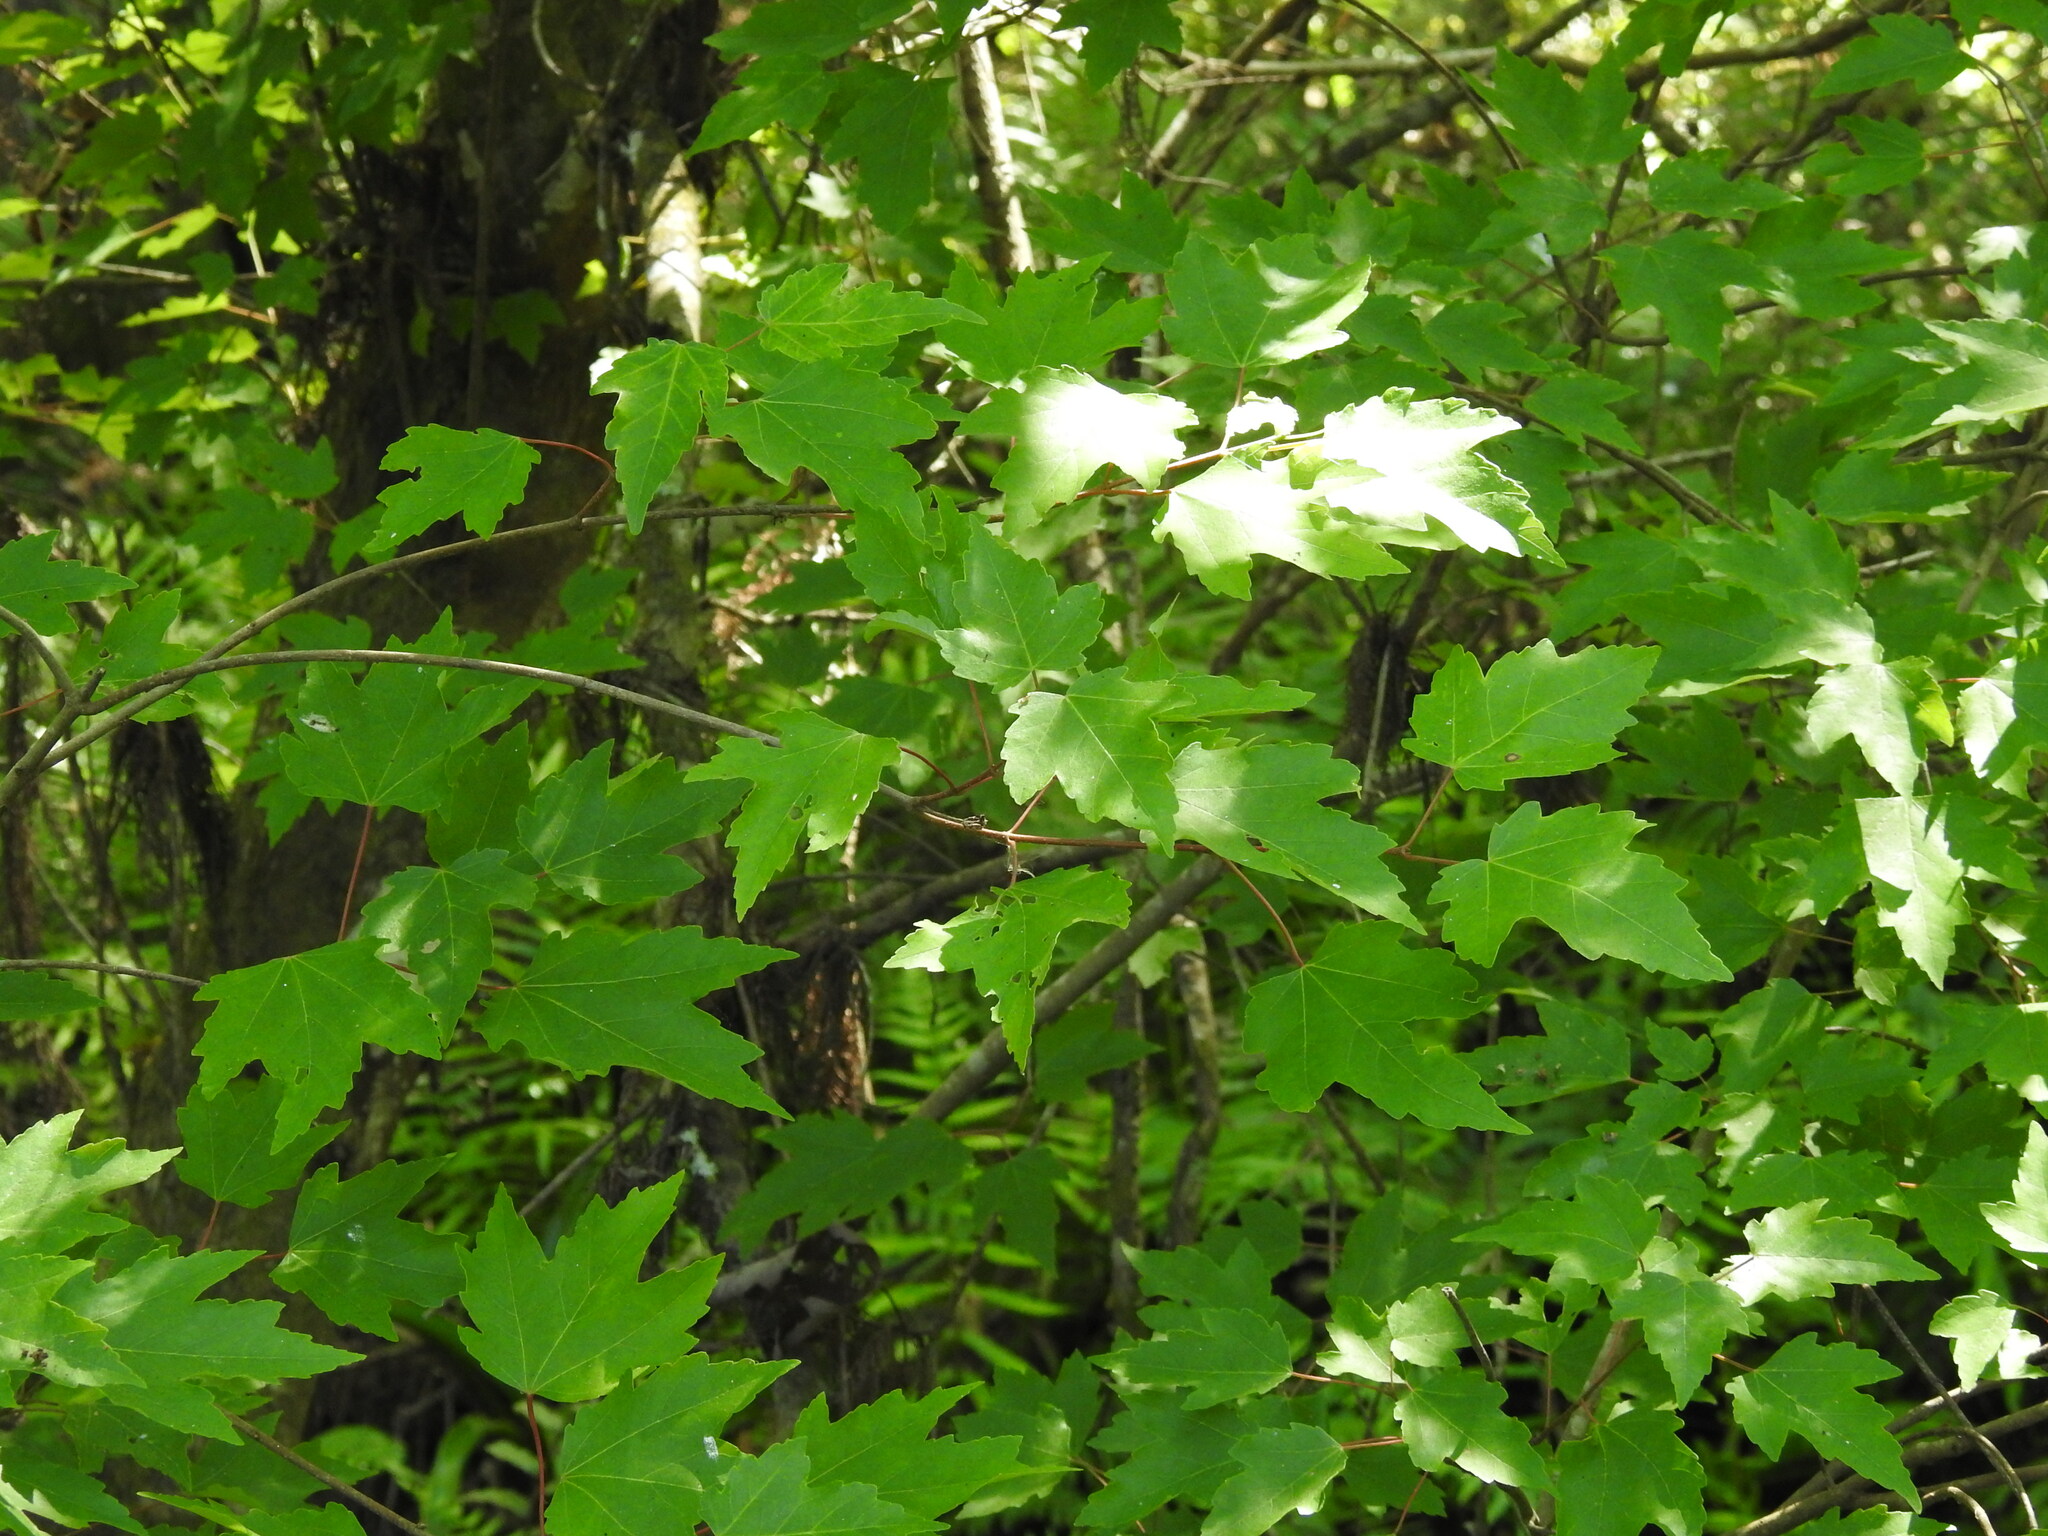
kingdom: Plantae
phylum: Tracheophyta
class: Magnoliopsida
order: Sapindales
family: Sapindaceae
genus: Acer
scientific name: Acer rubrum
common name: Red maple
